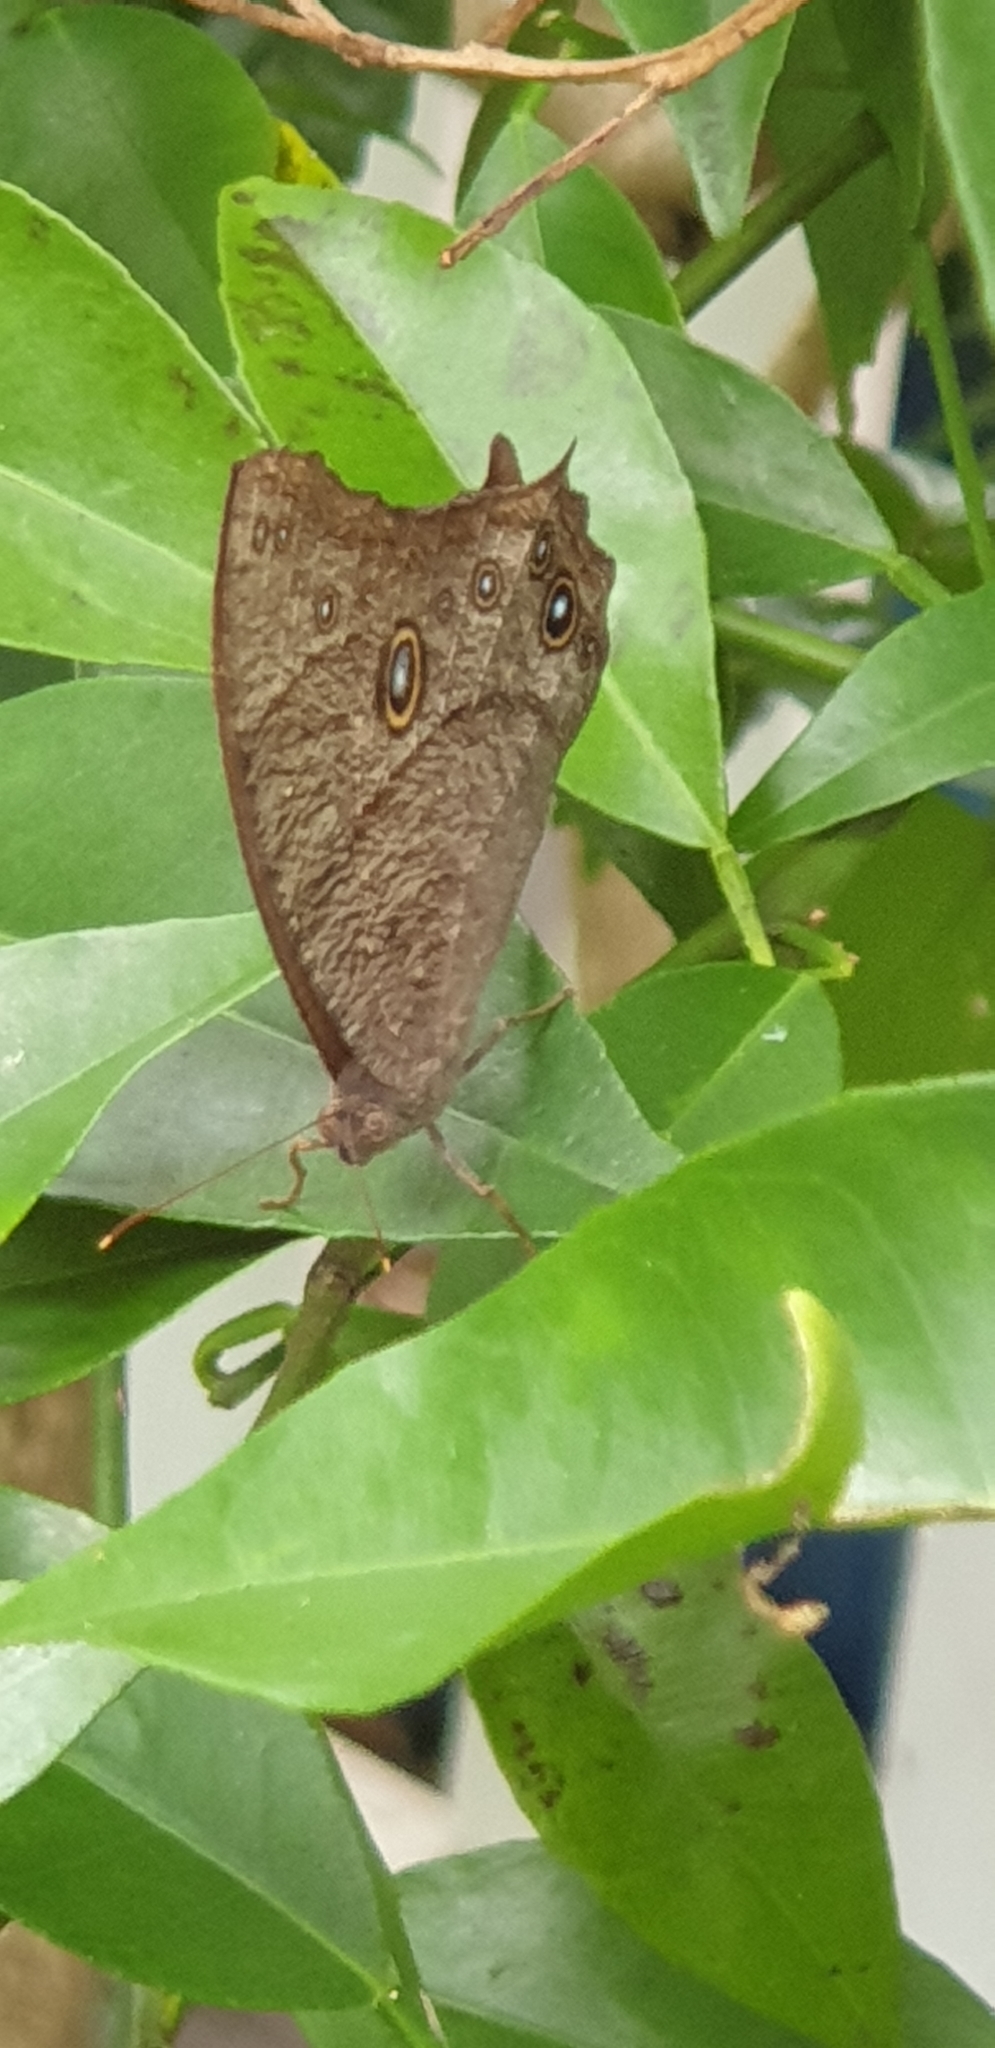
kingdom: Animalia
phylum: Arthropoda
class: Insecta
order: Lepidoptera
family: Nymphalidae
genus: Melanitis
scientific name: Melanitis leda
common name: Twilight brown
